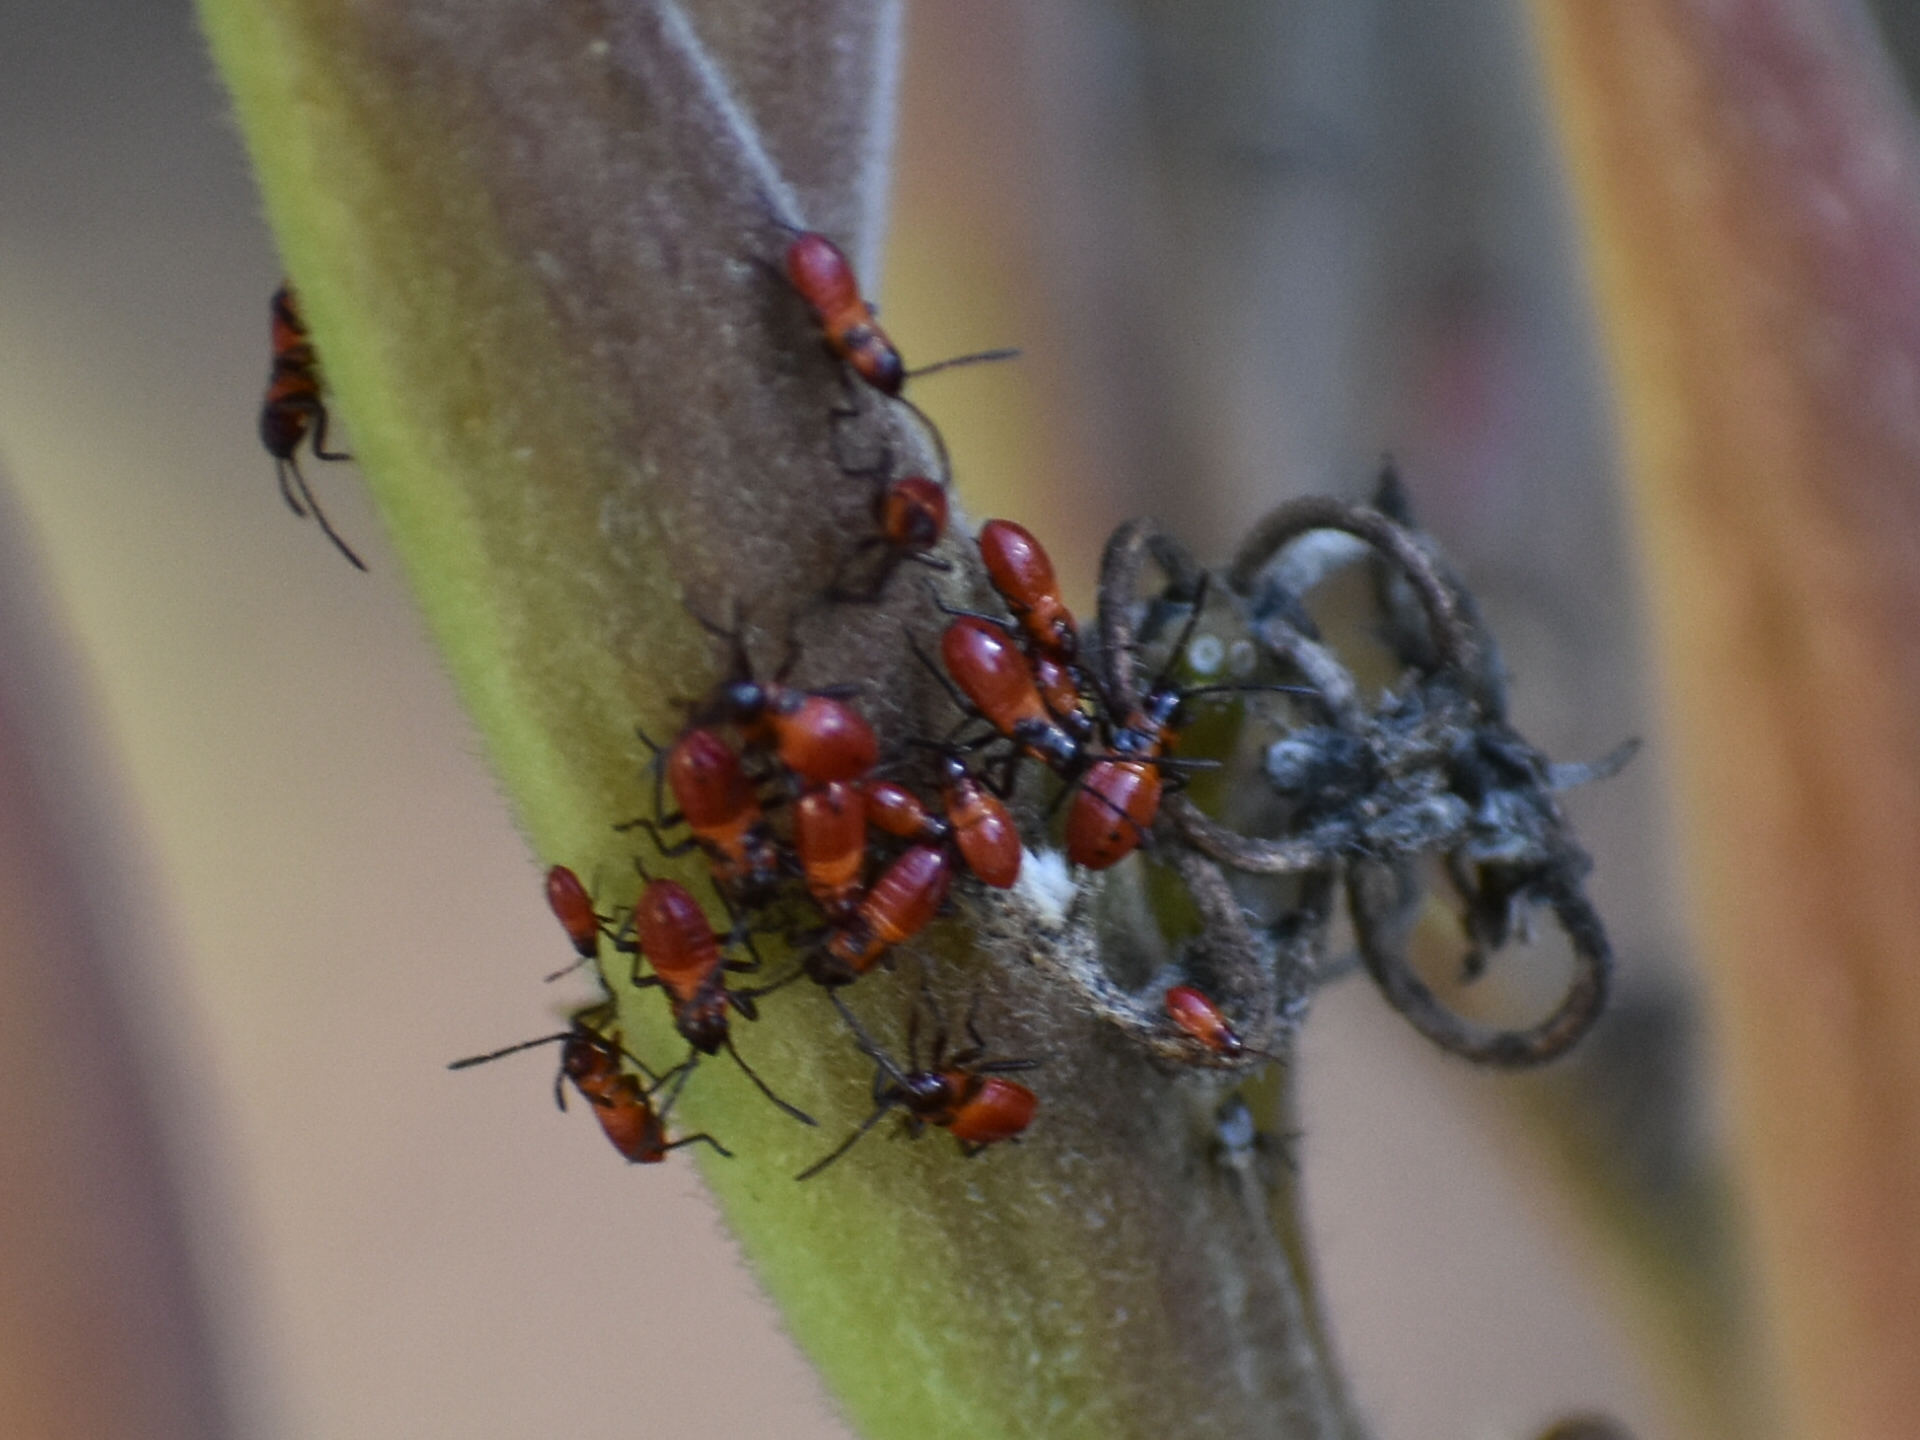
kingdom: Animalia
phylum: Arthropoda
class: Insecta
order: Hemiptera
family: Lygaeidae
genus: Oncopeltus
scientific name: Oncopeltus fasciatus
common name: Large milkweed bug
